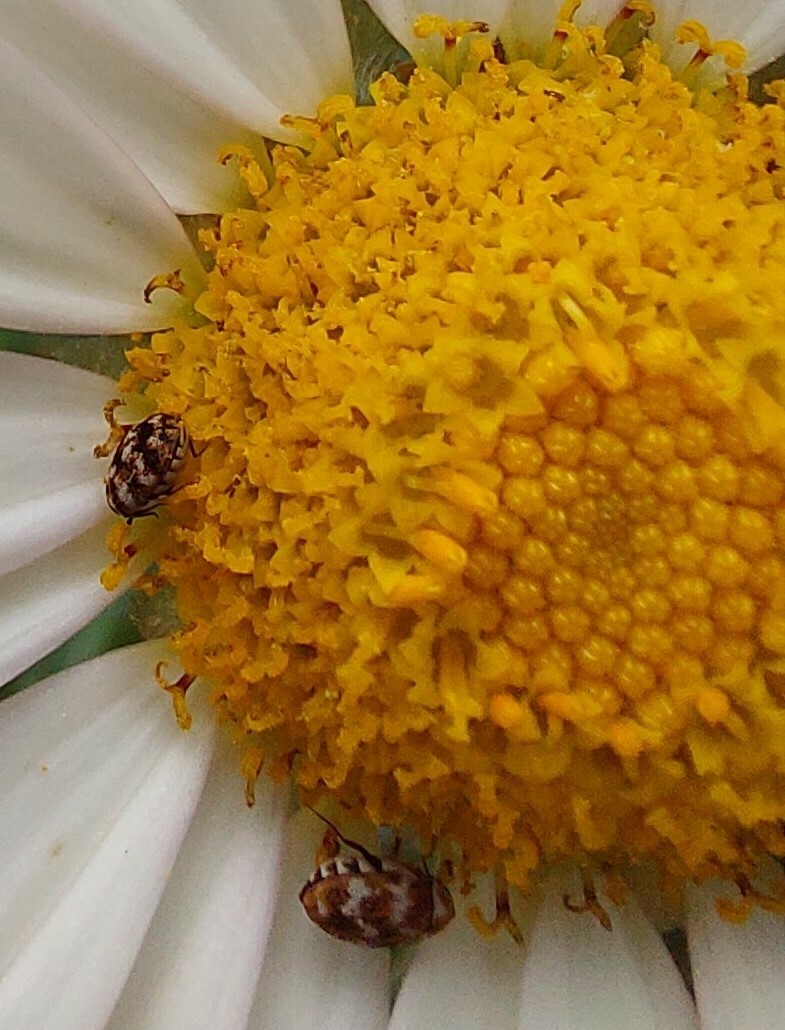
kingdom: Animalia
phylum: Arthropoda
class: Insecta
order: Coleoptera
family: Dermestidae
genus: Anthrenus
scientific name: Anthrenus verbasci
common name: Varied carpet beetle
